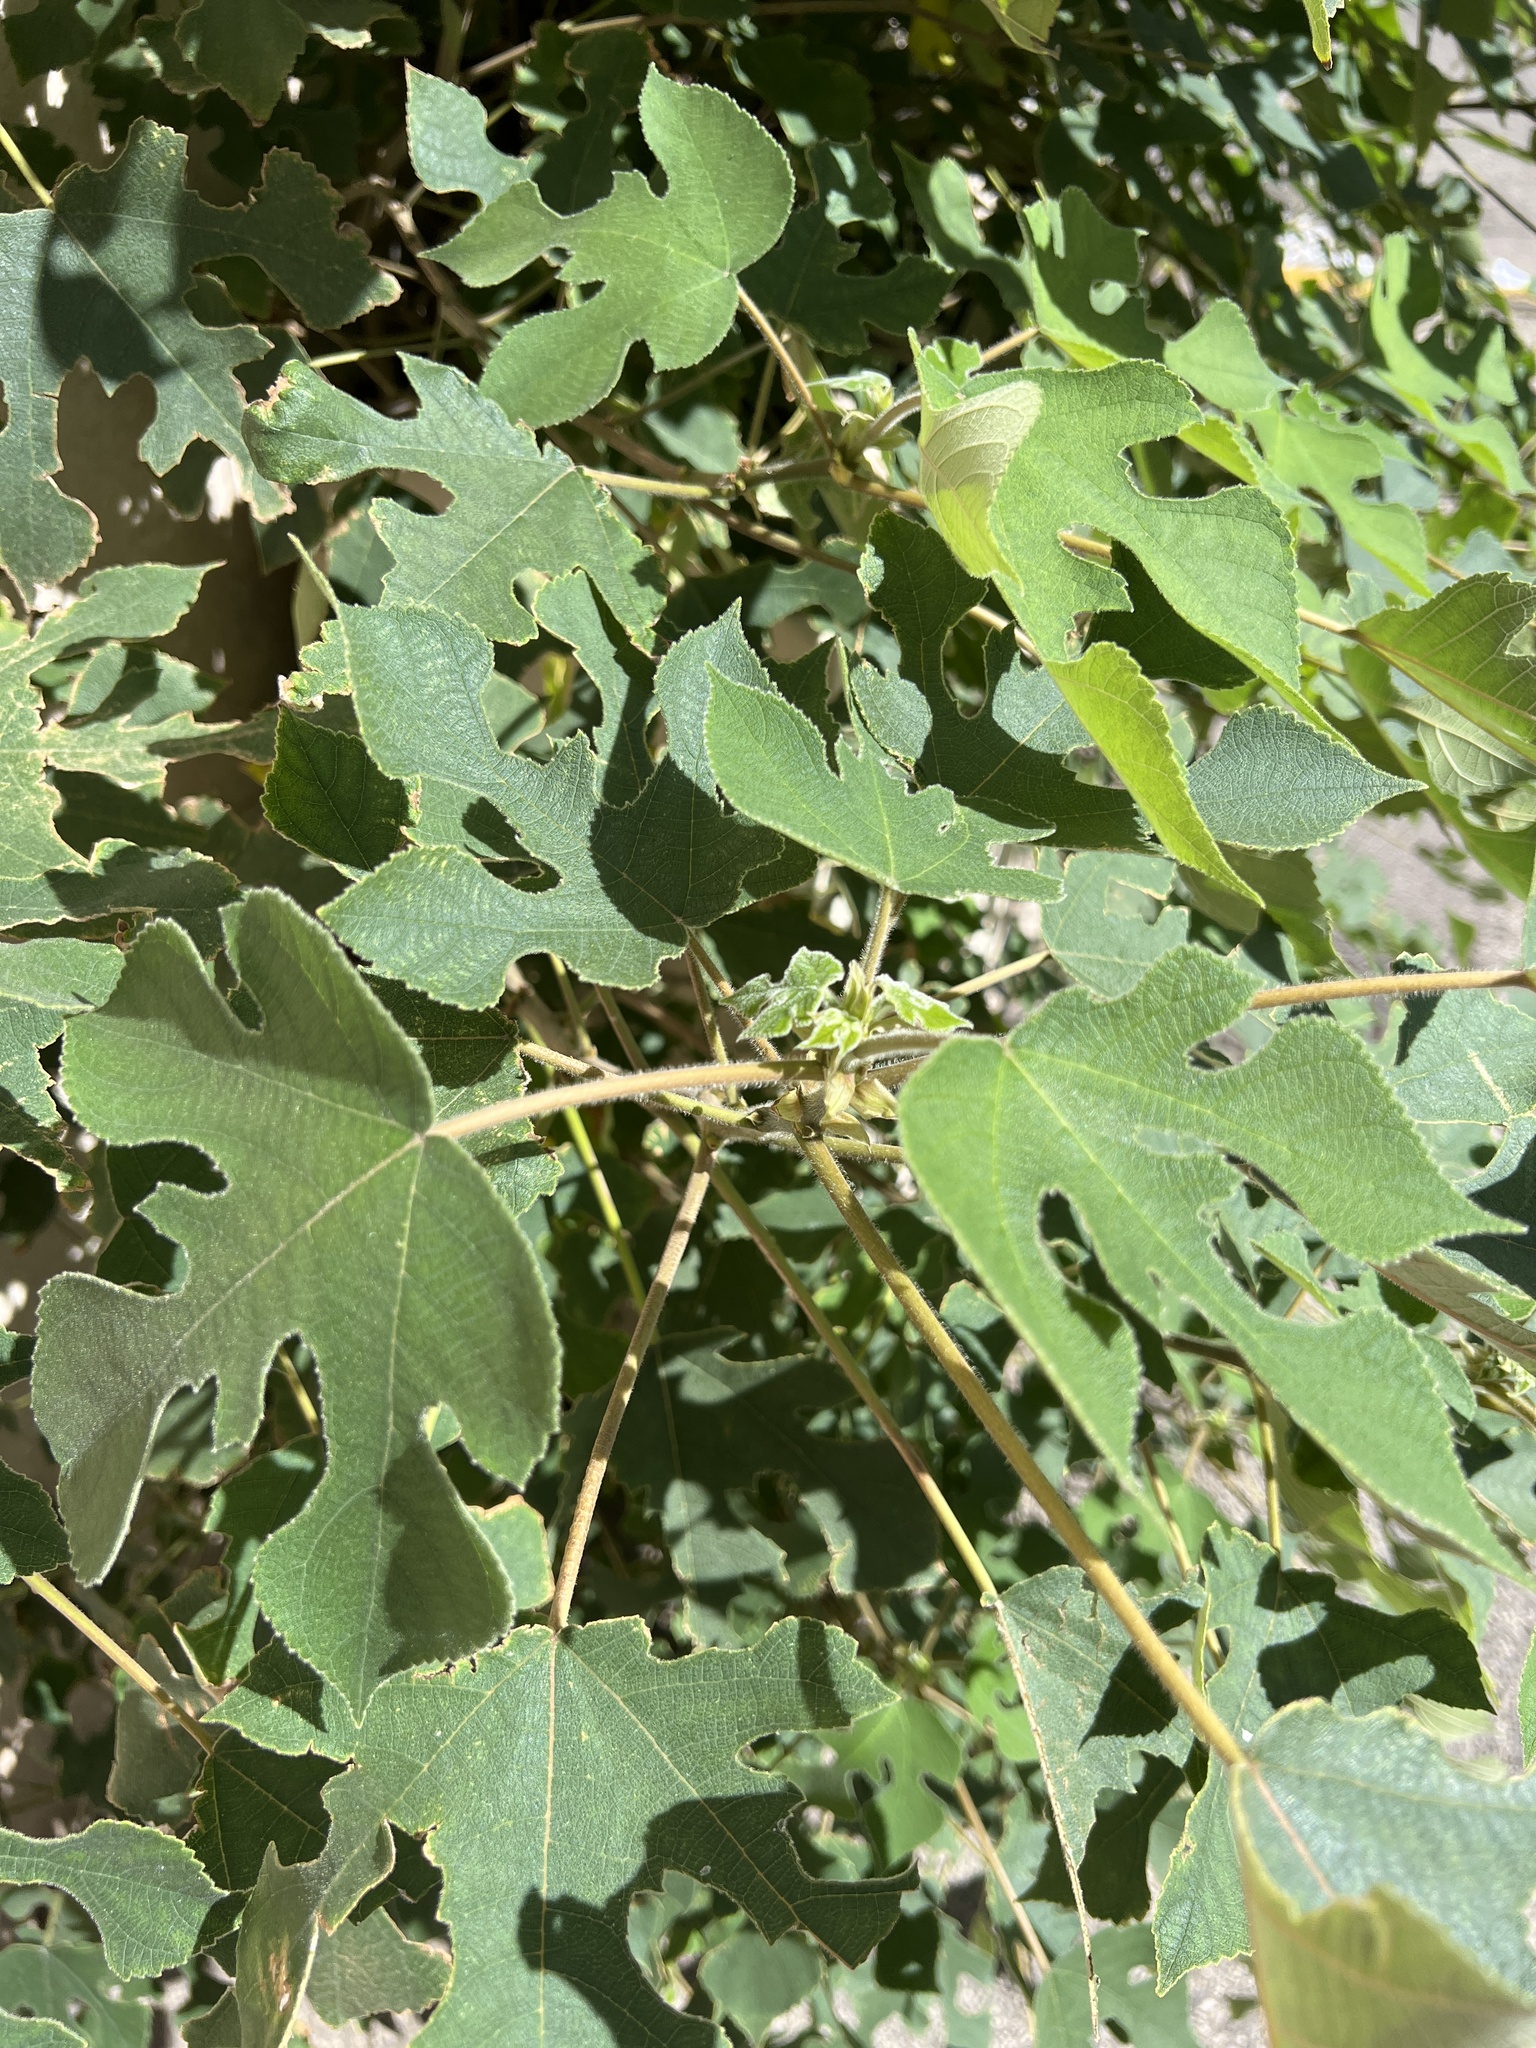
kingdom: Plantae
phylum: Tracheophyta
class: Magnoliopsida
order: Rosales
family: Moraceae
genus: Broussonetia
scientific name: Broussonetia papyrifera
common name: Paper mulberry
